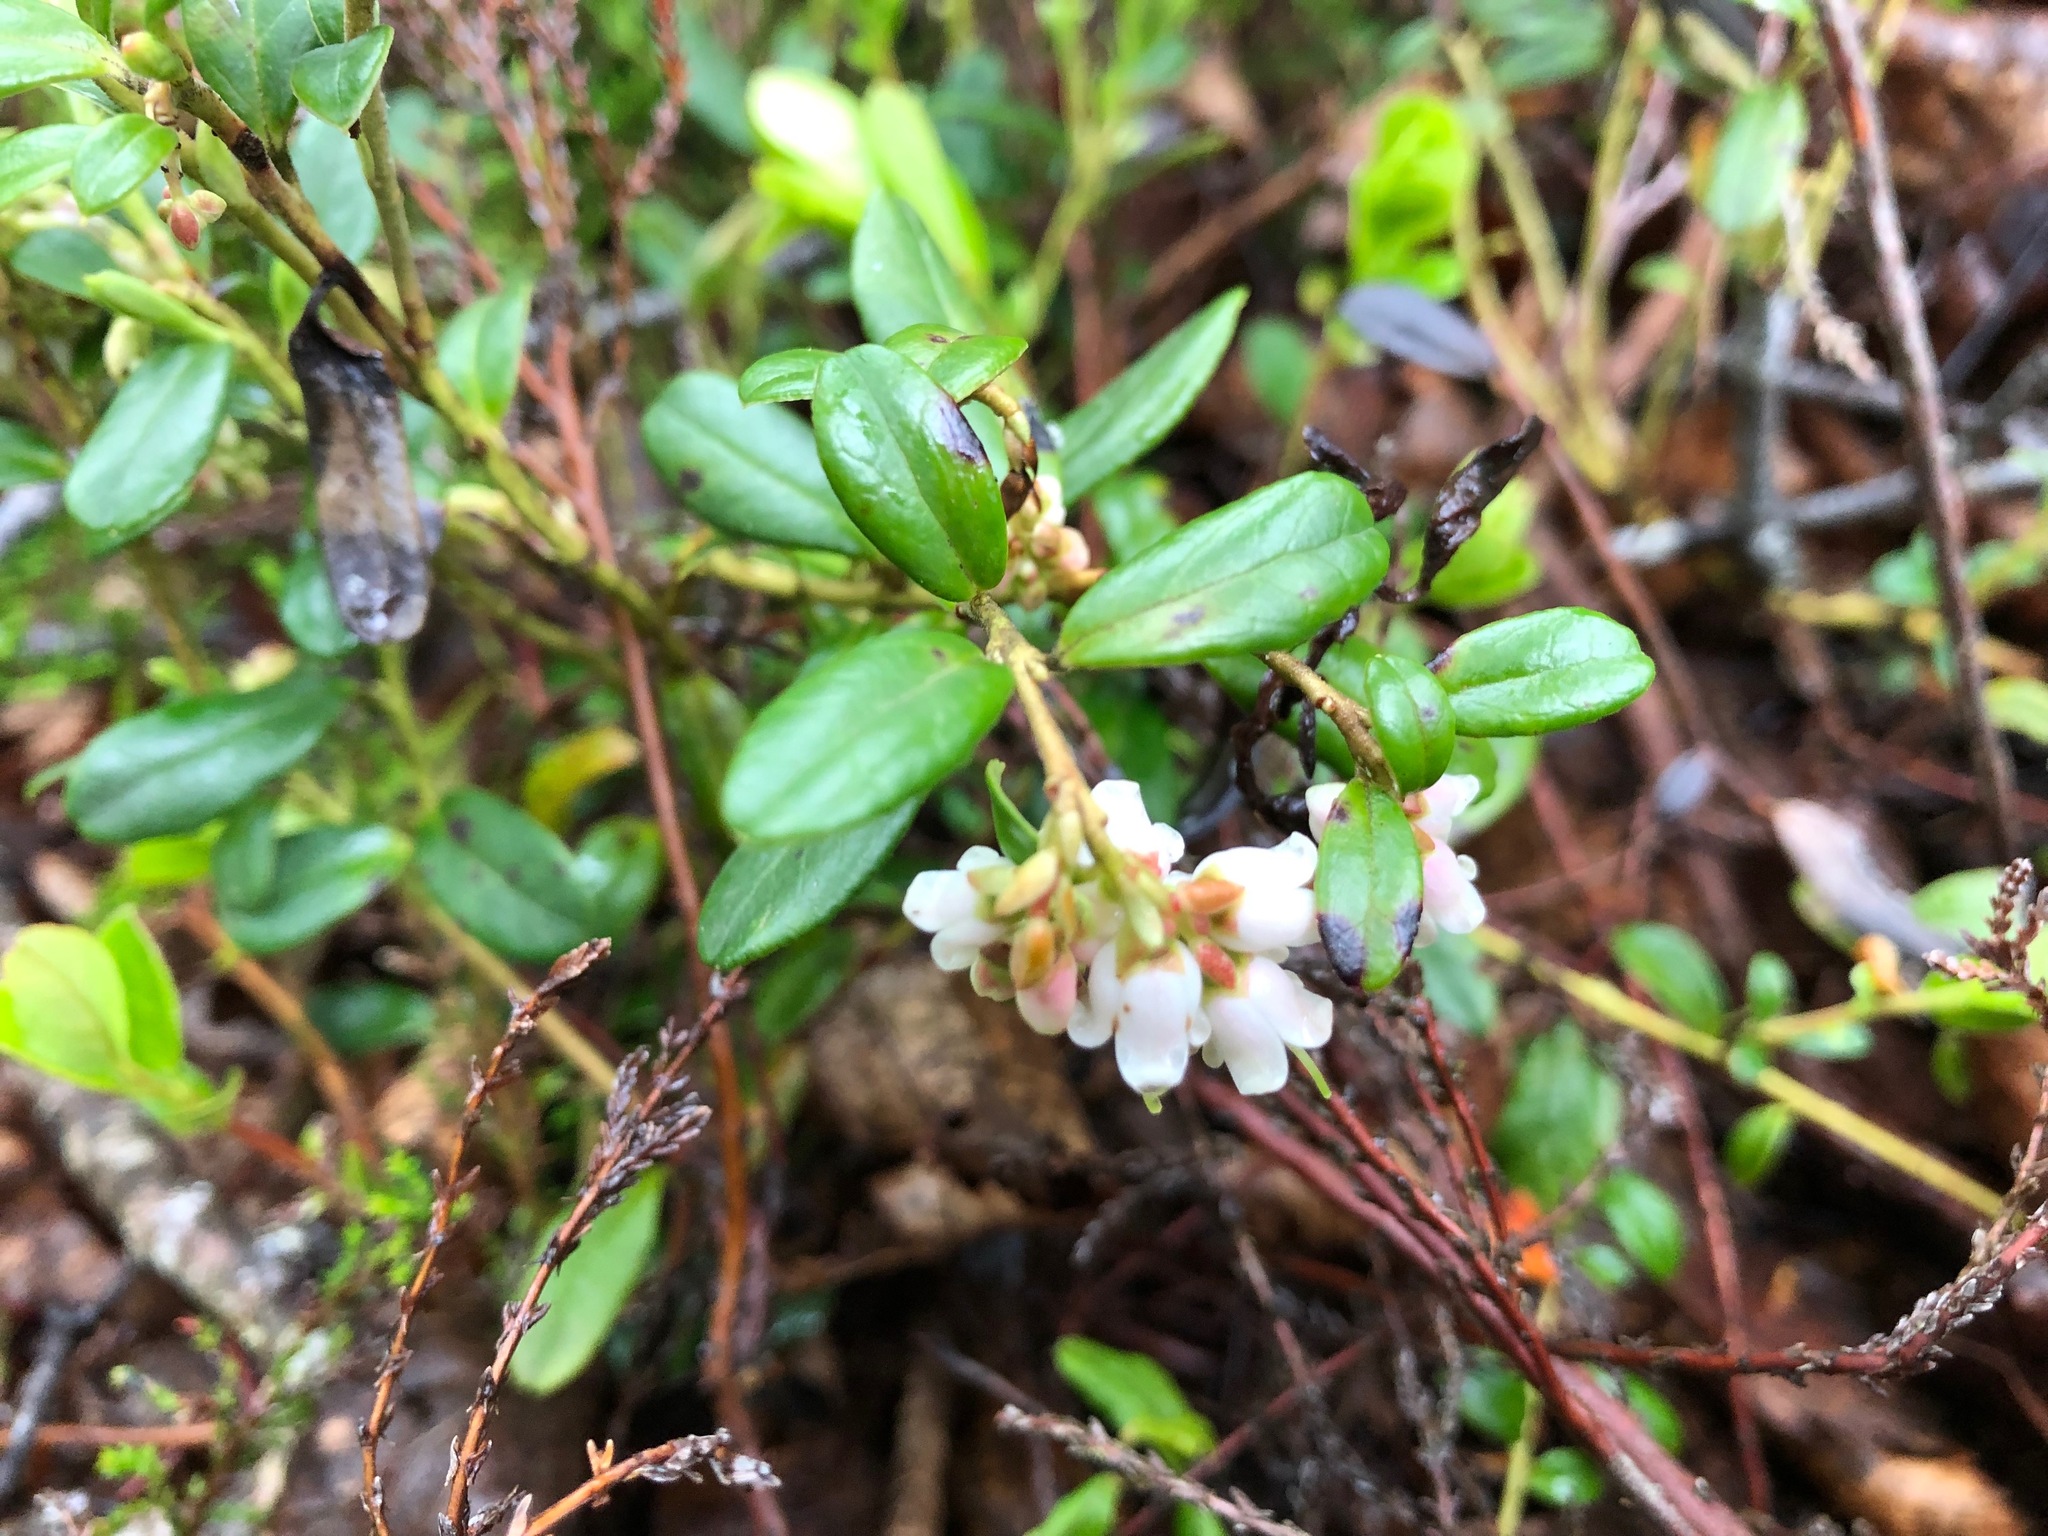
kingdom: Plantae
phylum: Tracheophyta
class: Magnoliopsida
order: Ericales
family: Ericaceae
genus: Vaccinium
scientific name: Vaccinium vitis-idaea
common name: Cowberry
